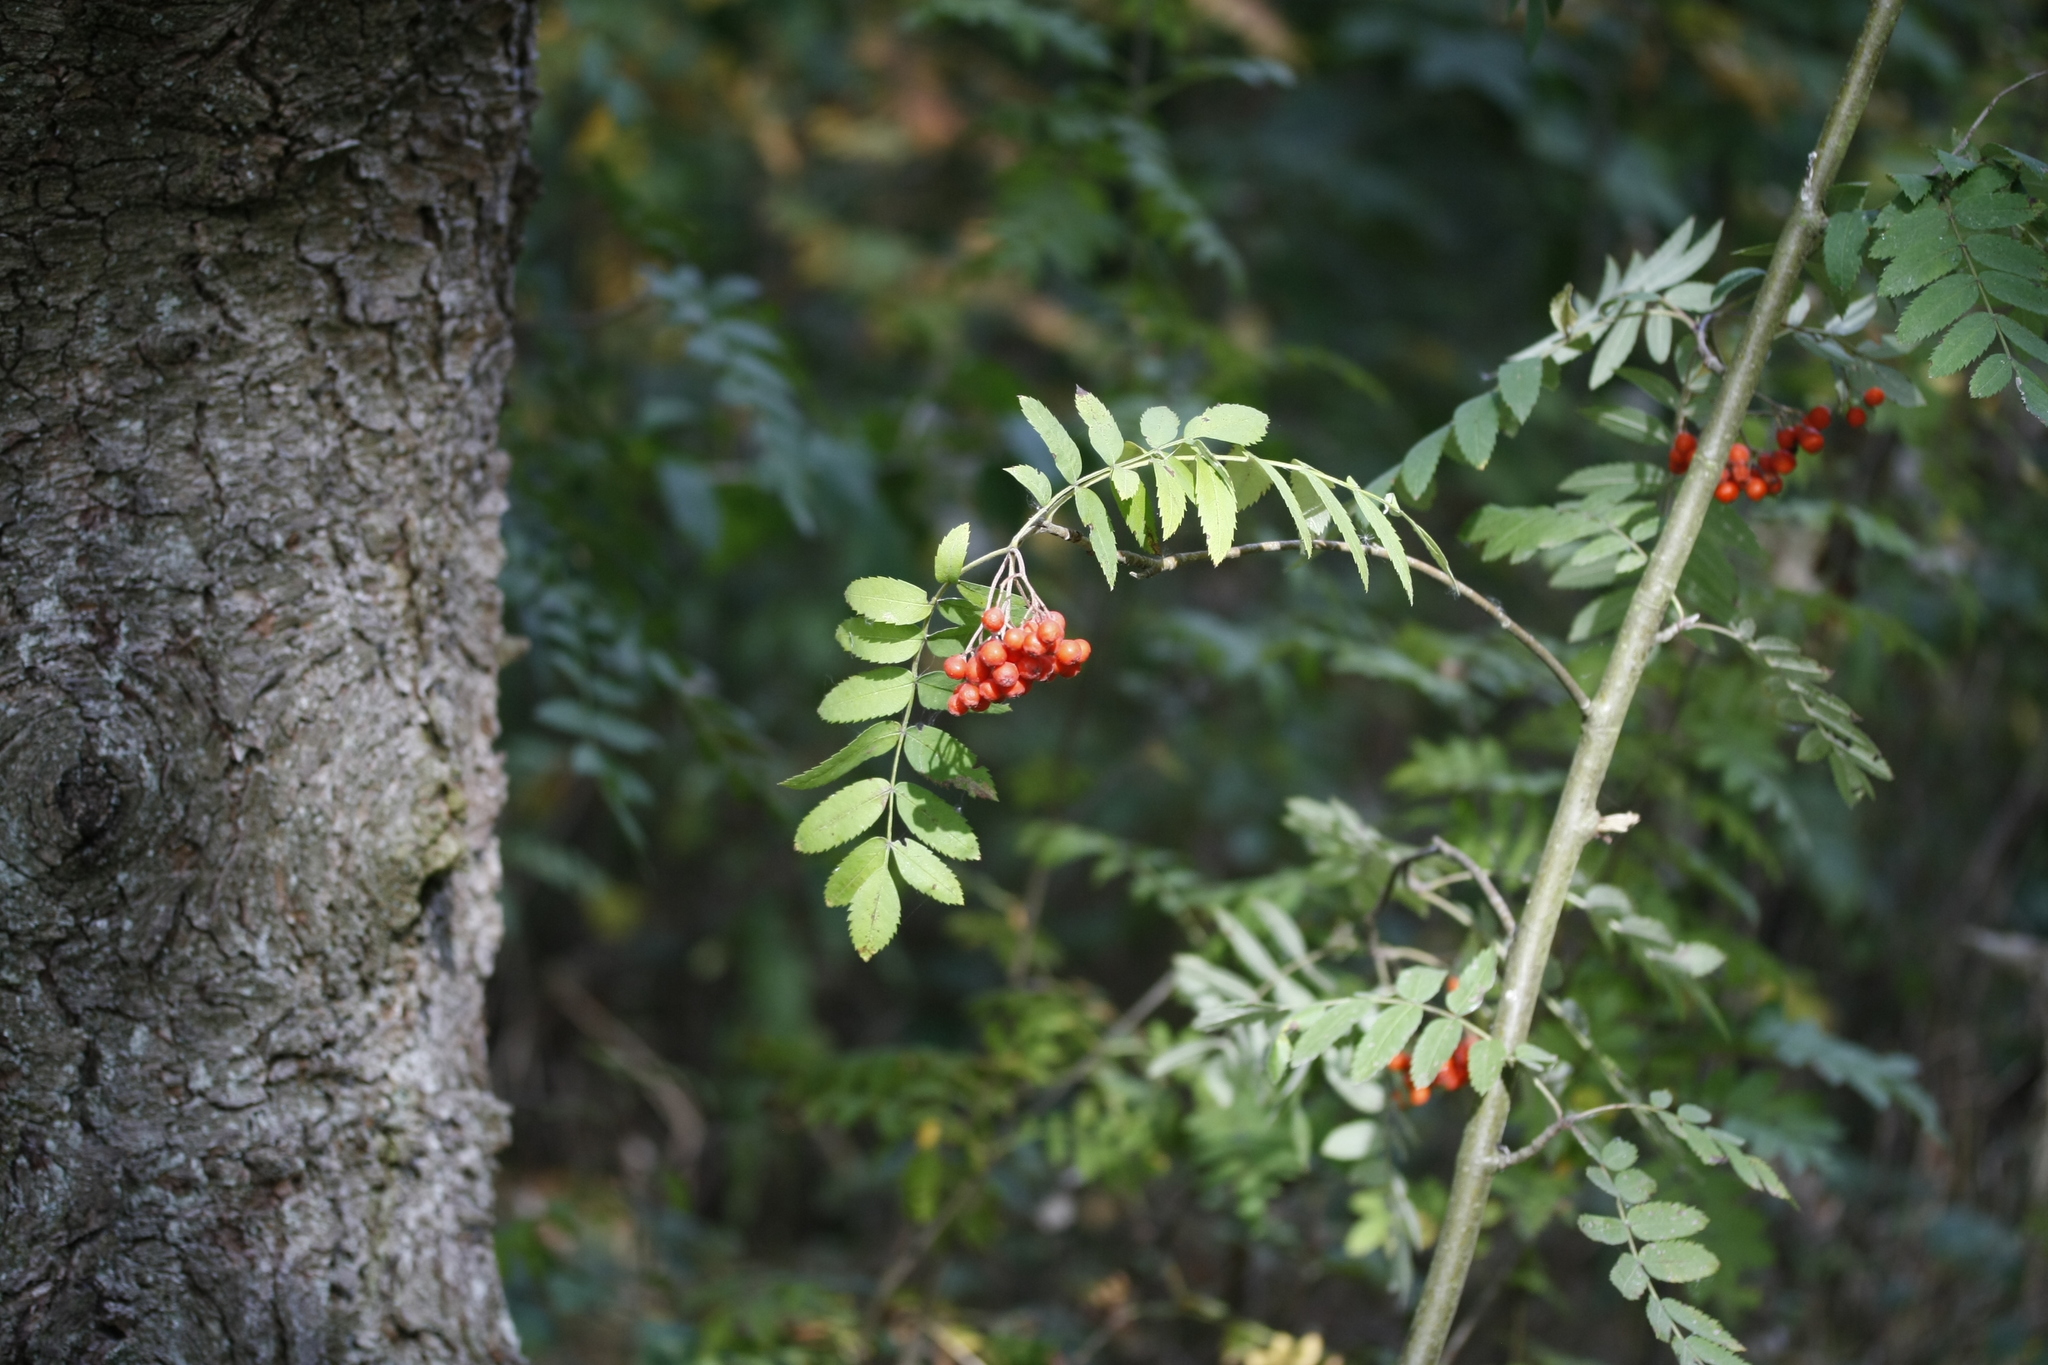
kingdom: Plantae
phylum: Tracheophyta
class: Magnoliopsida
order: Rosales
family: Rosaceae
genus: Sorbus
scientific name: Sorbus aucuparia
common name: Rowan
